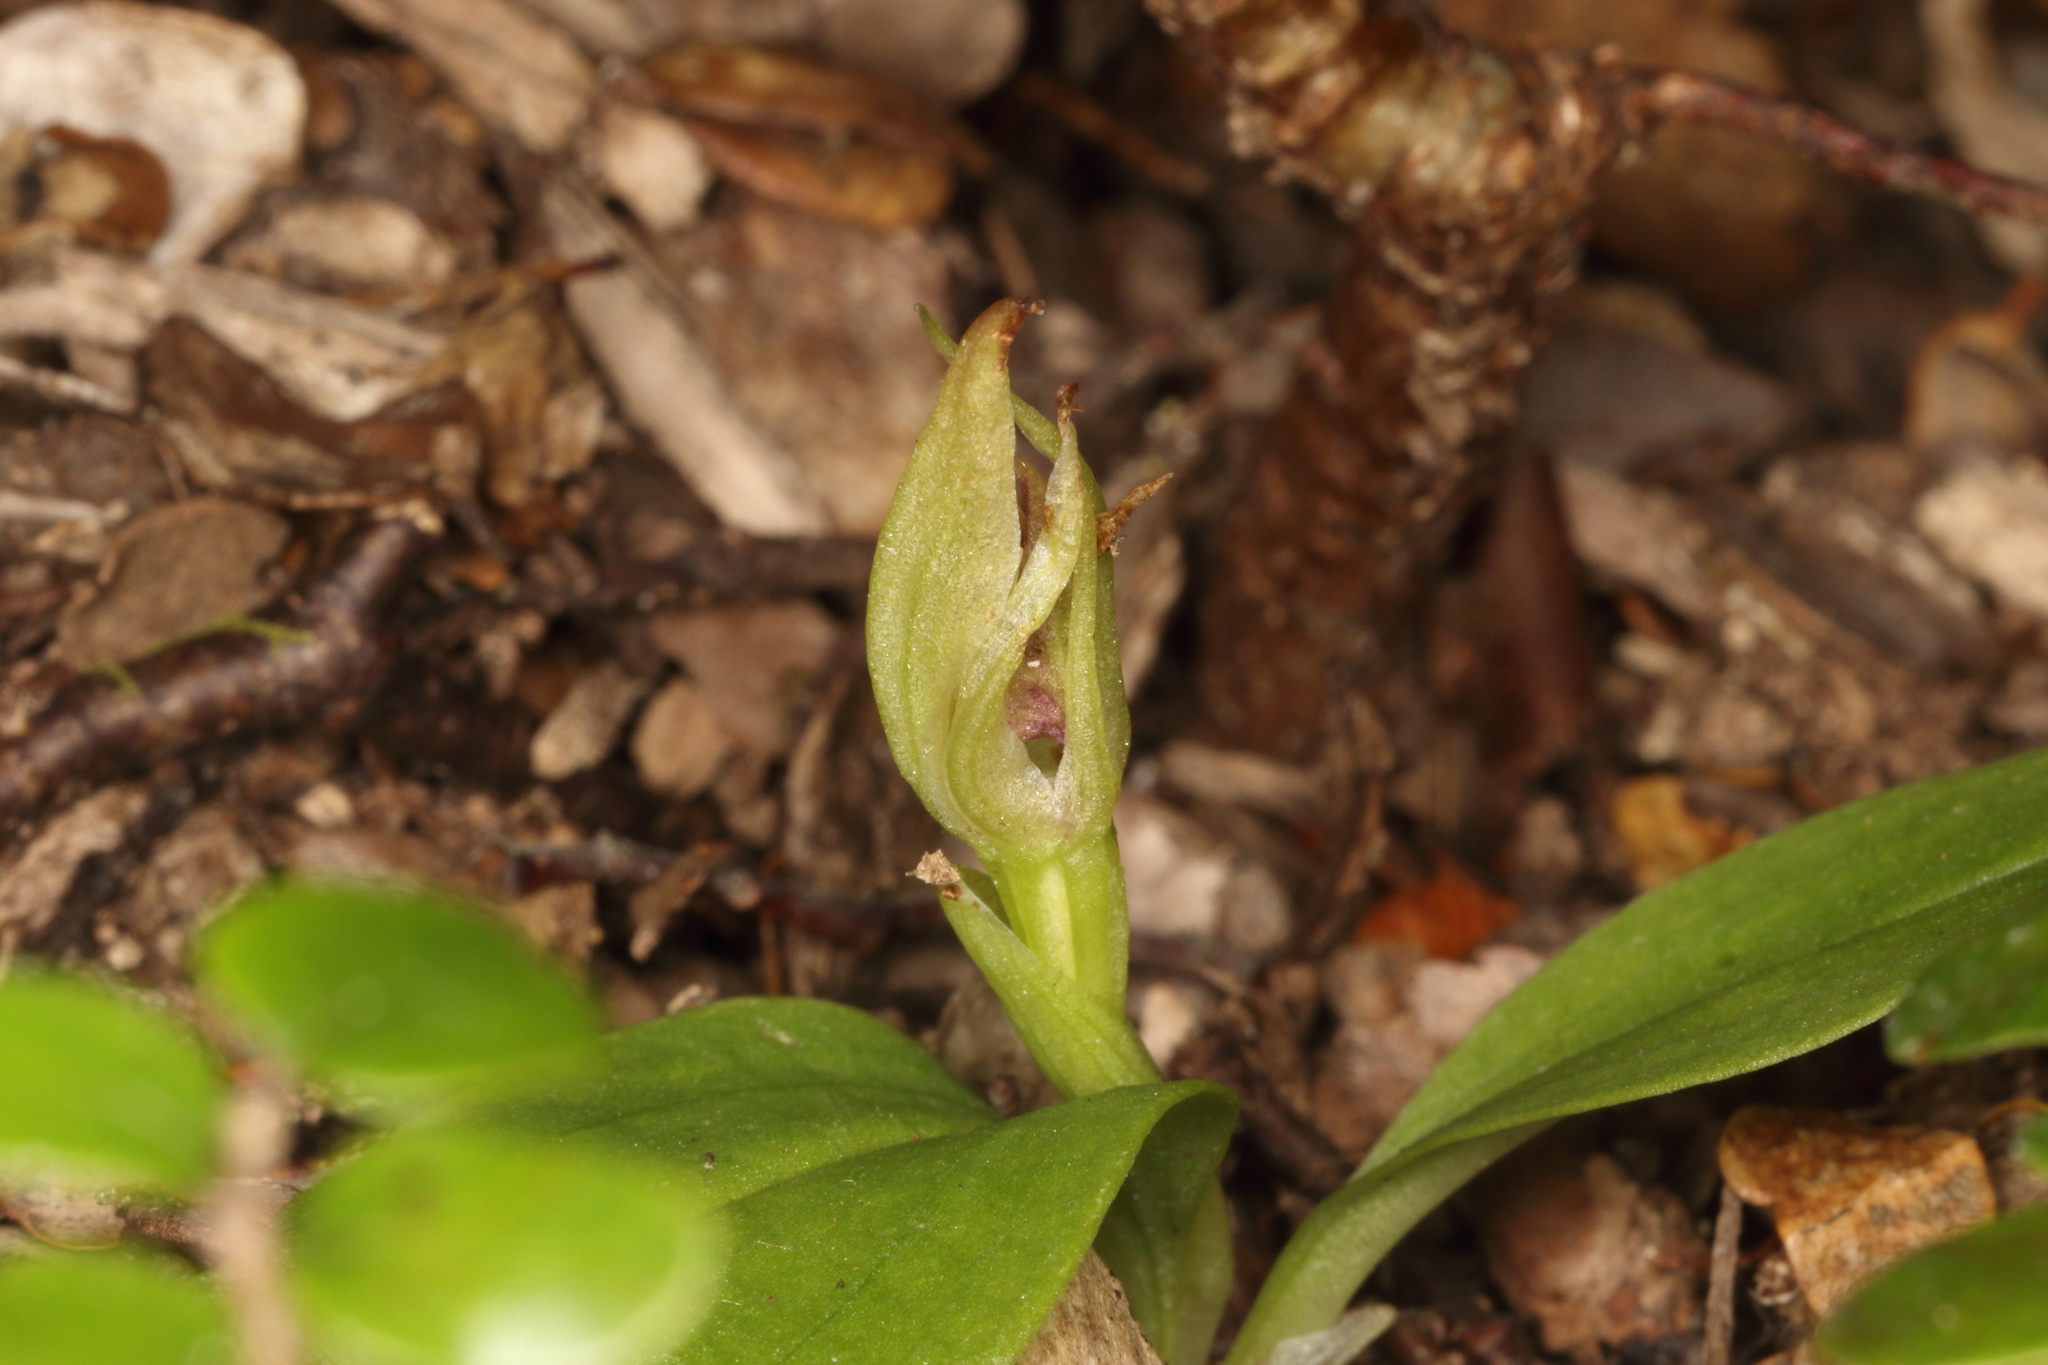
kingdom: Plantae
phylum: Tracheophyta
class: Liliopsida
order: Asparagales
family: Orchidaceae
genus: Chiloglottis
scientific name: Chiloglottis cornuta
